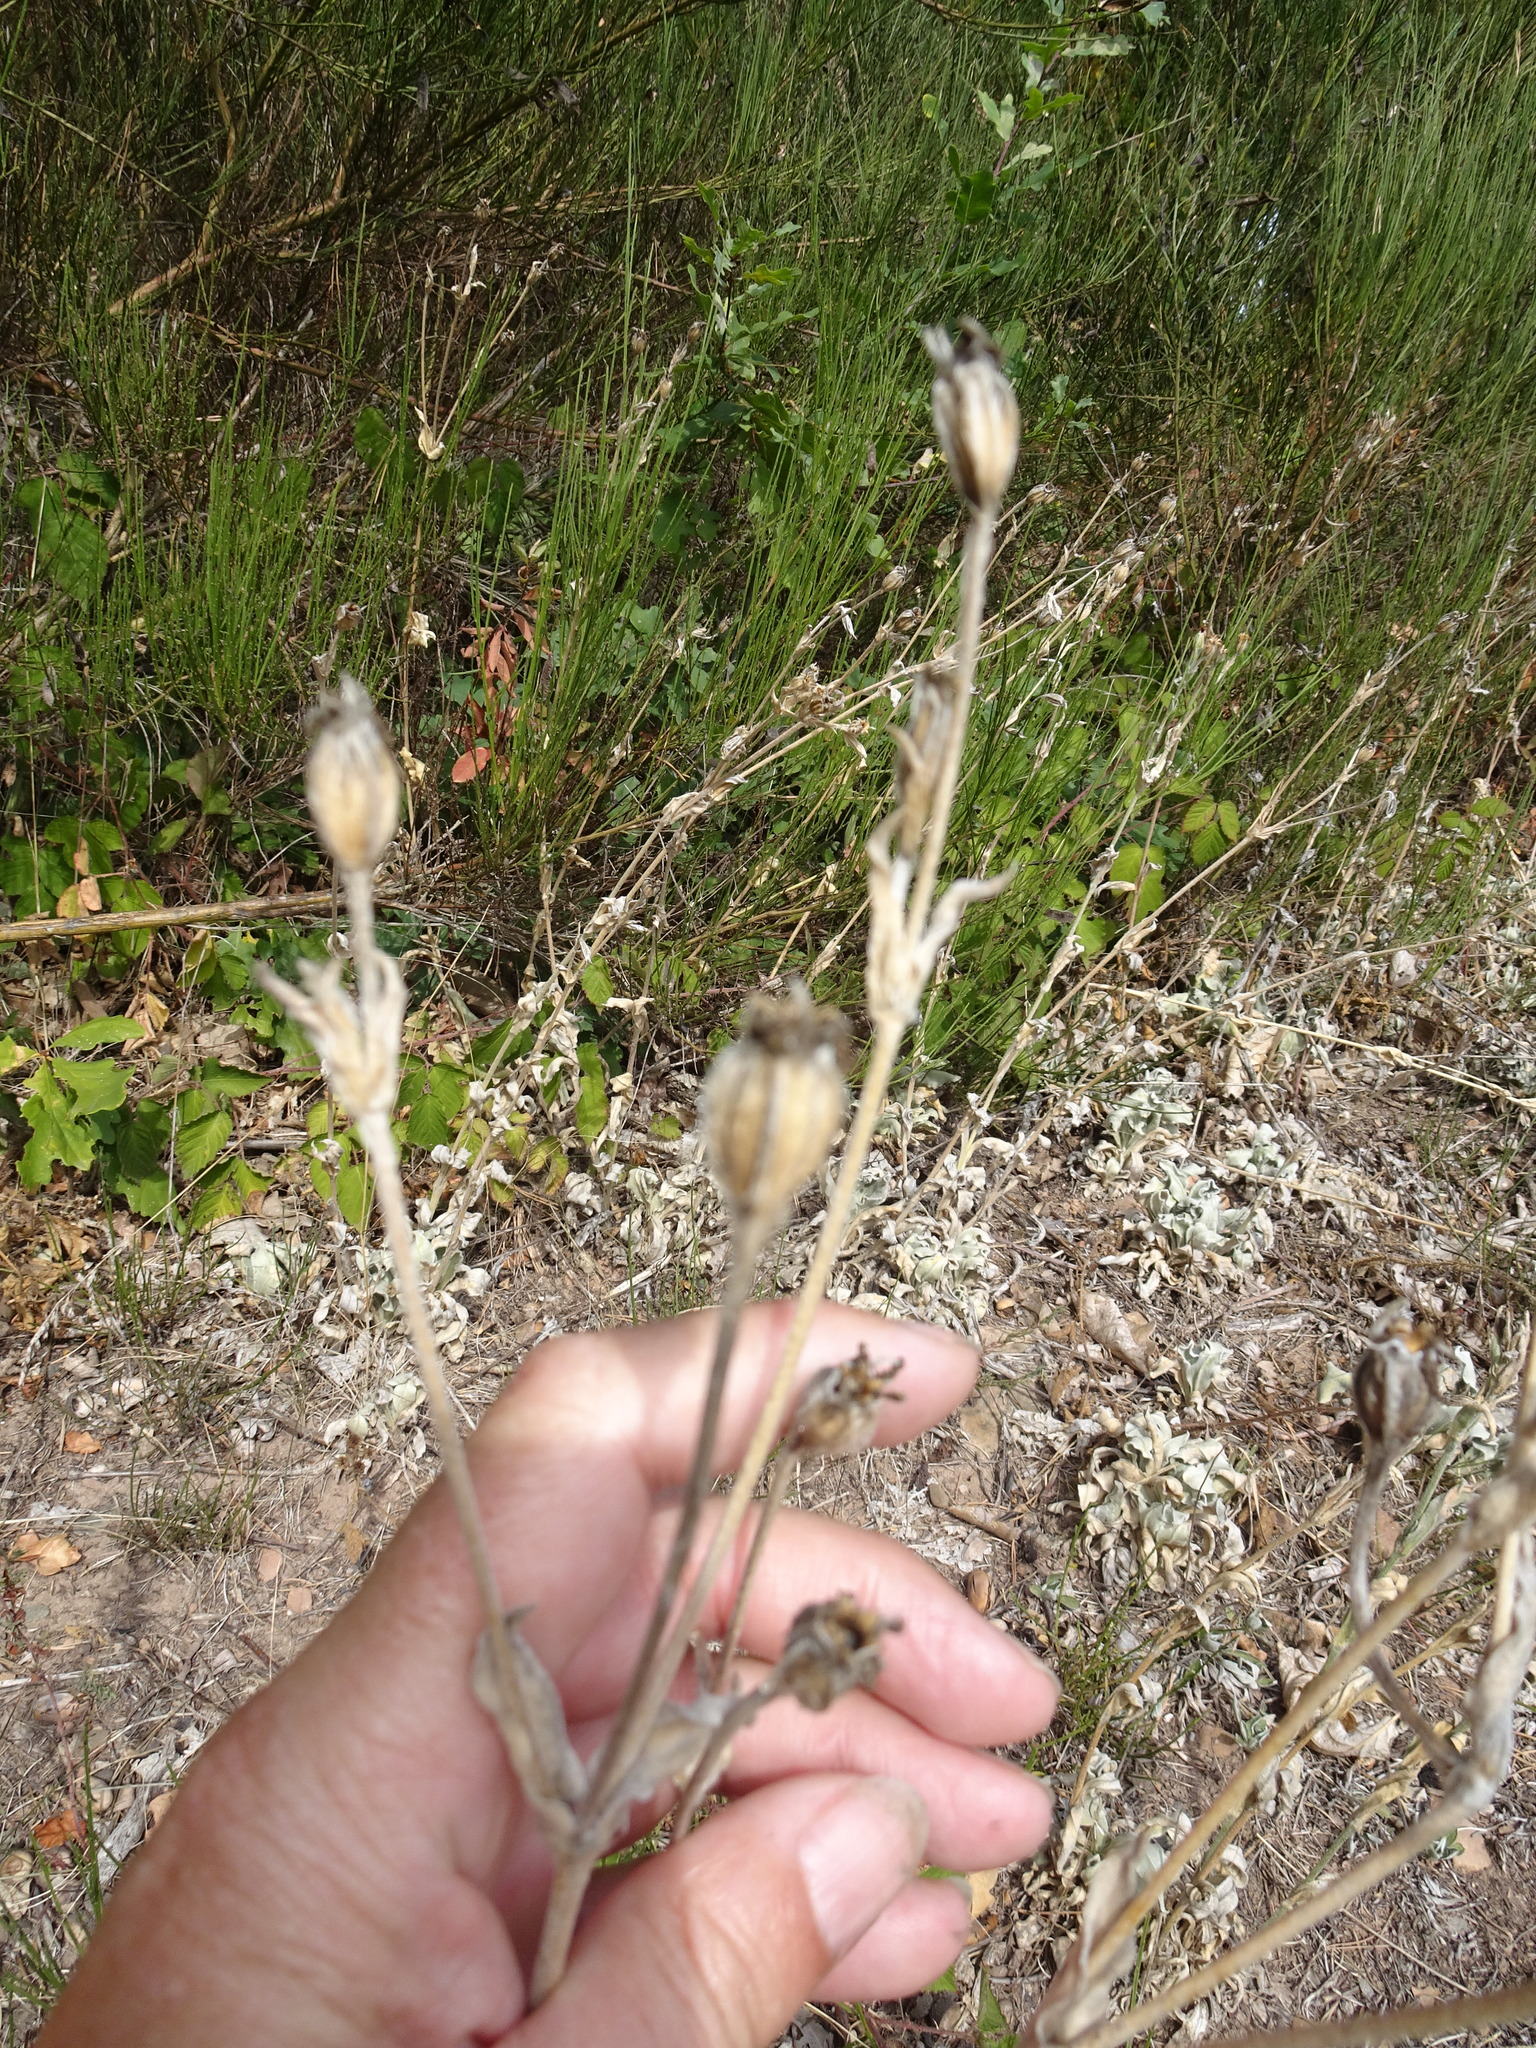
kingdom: Plantae
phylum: Tracheophyta
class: Magnoliopsida
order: Caryophyllales
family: Caryophyllaceae
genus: Silene
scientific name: Silene coronaria
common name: Rose campion
